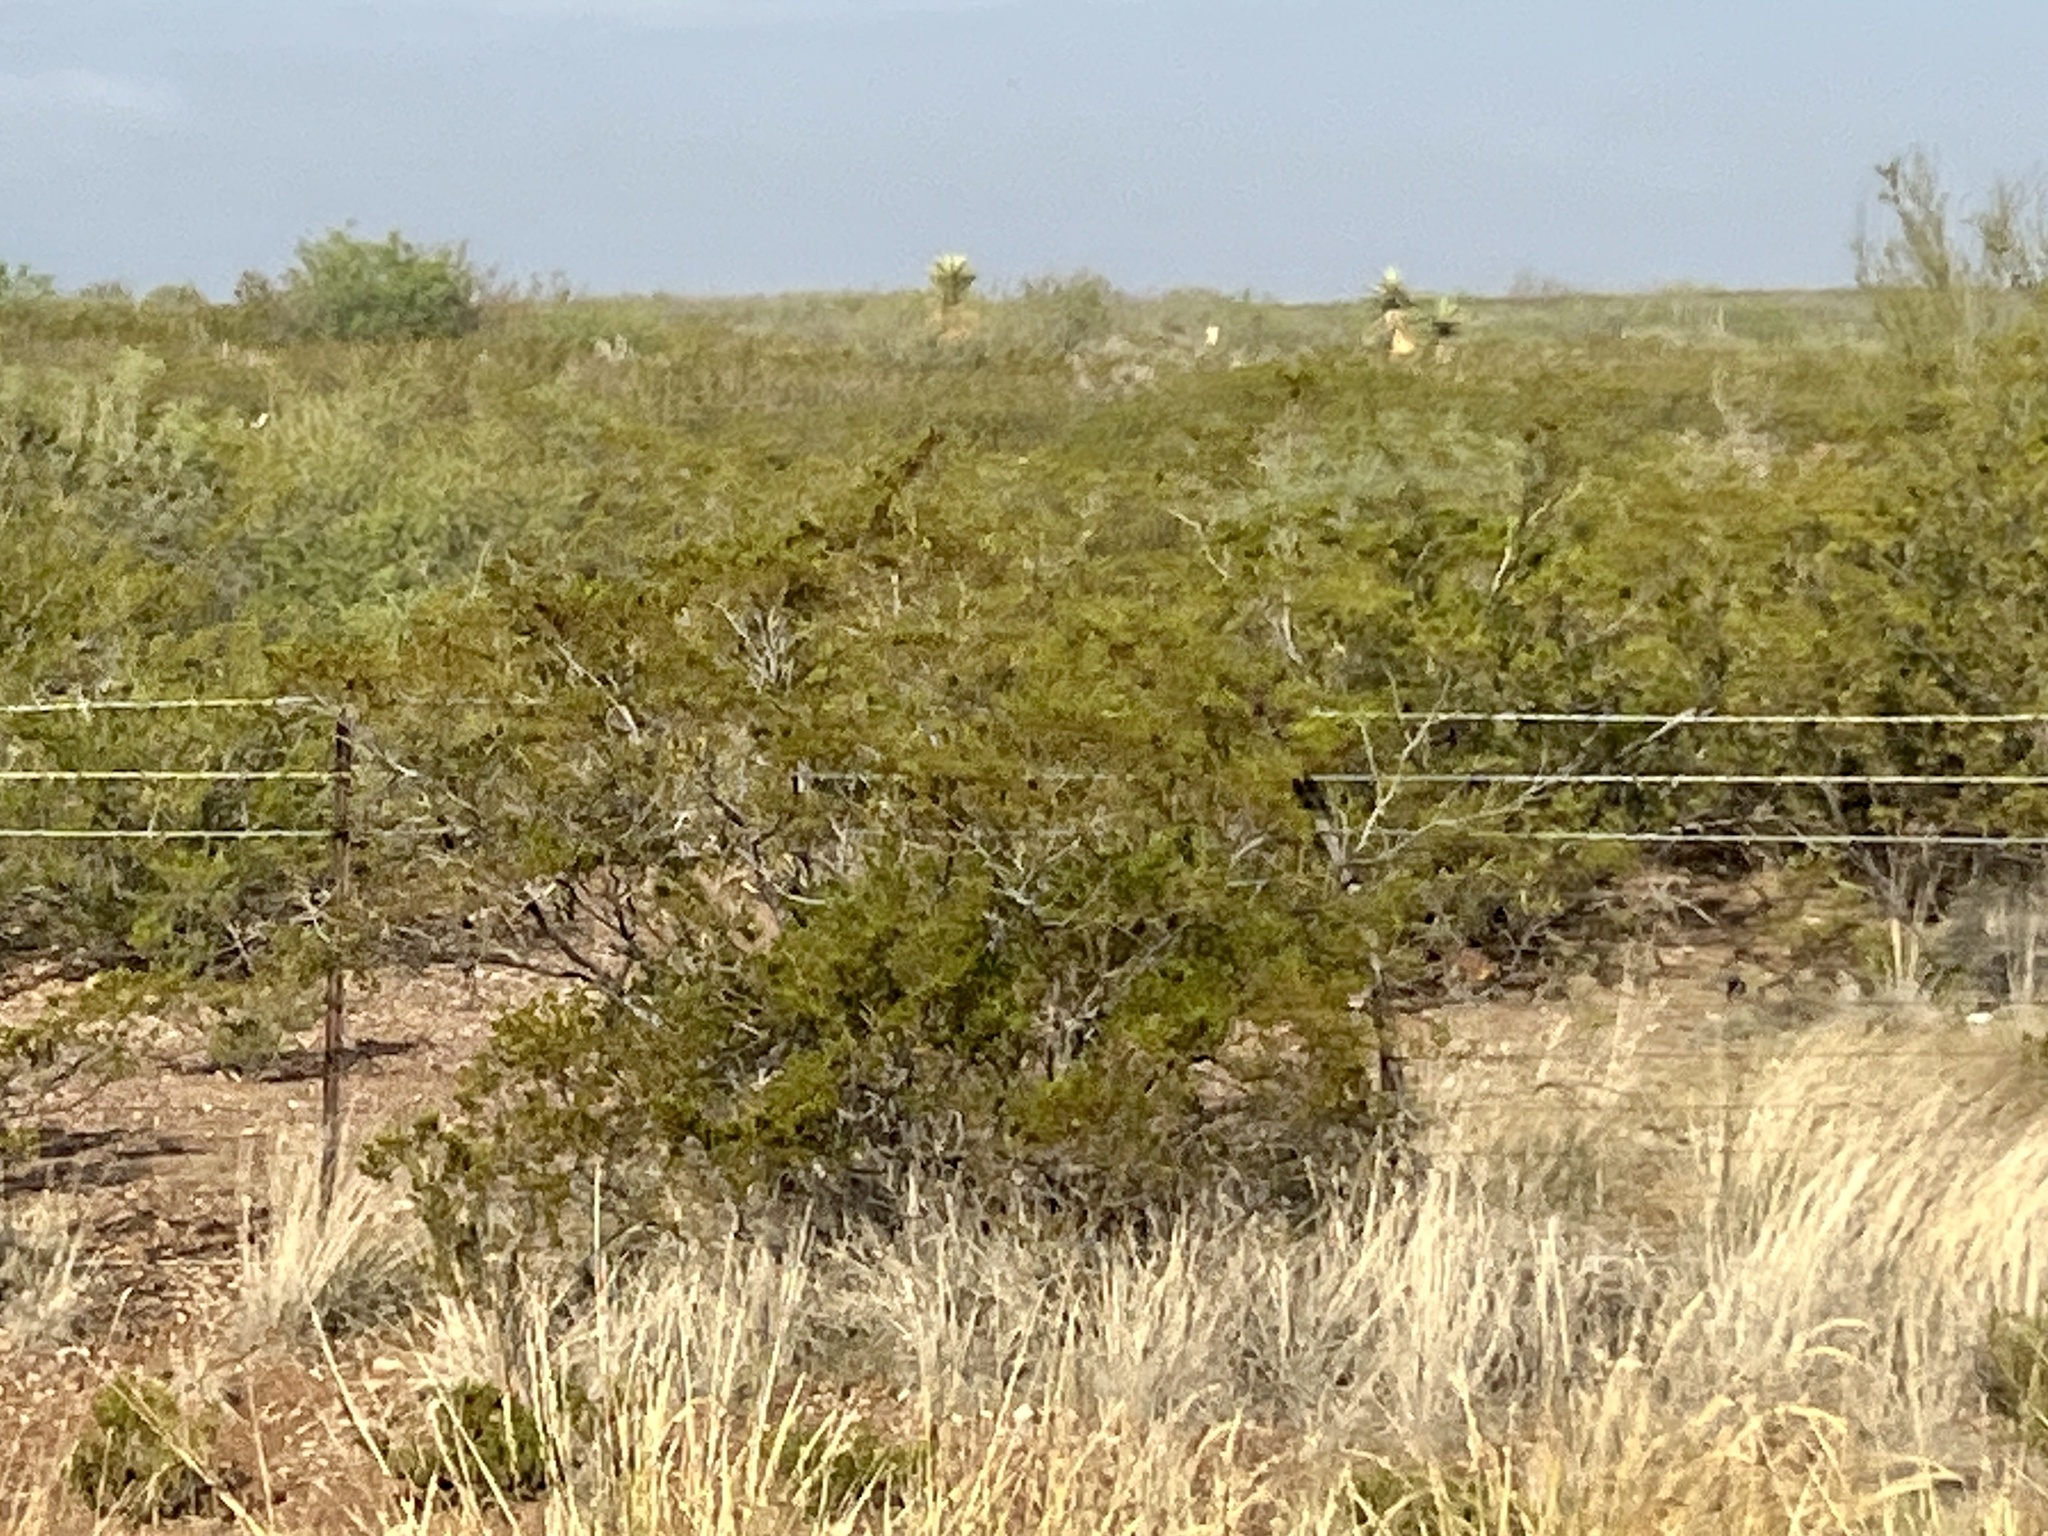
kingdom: Plantae
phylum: Tracheophyta
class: Magnoliopsida
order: Zygophyllales
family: Zygophyllaceae
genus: Larrea
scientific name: Larrea tridentata
